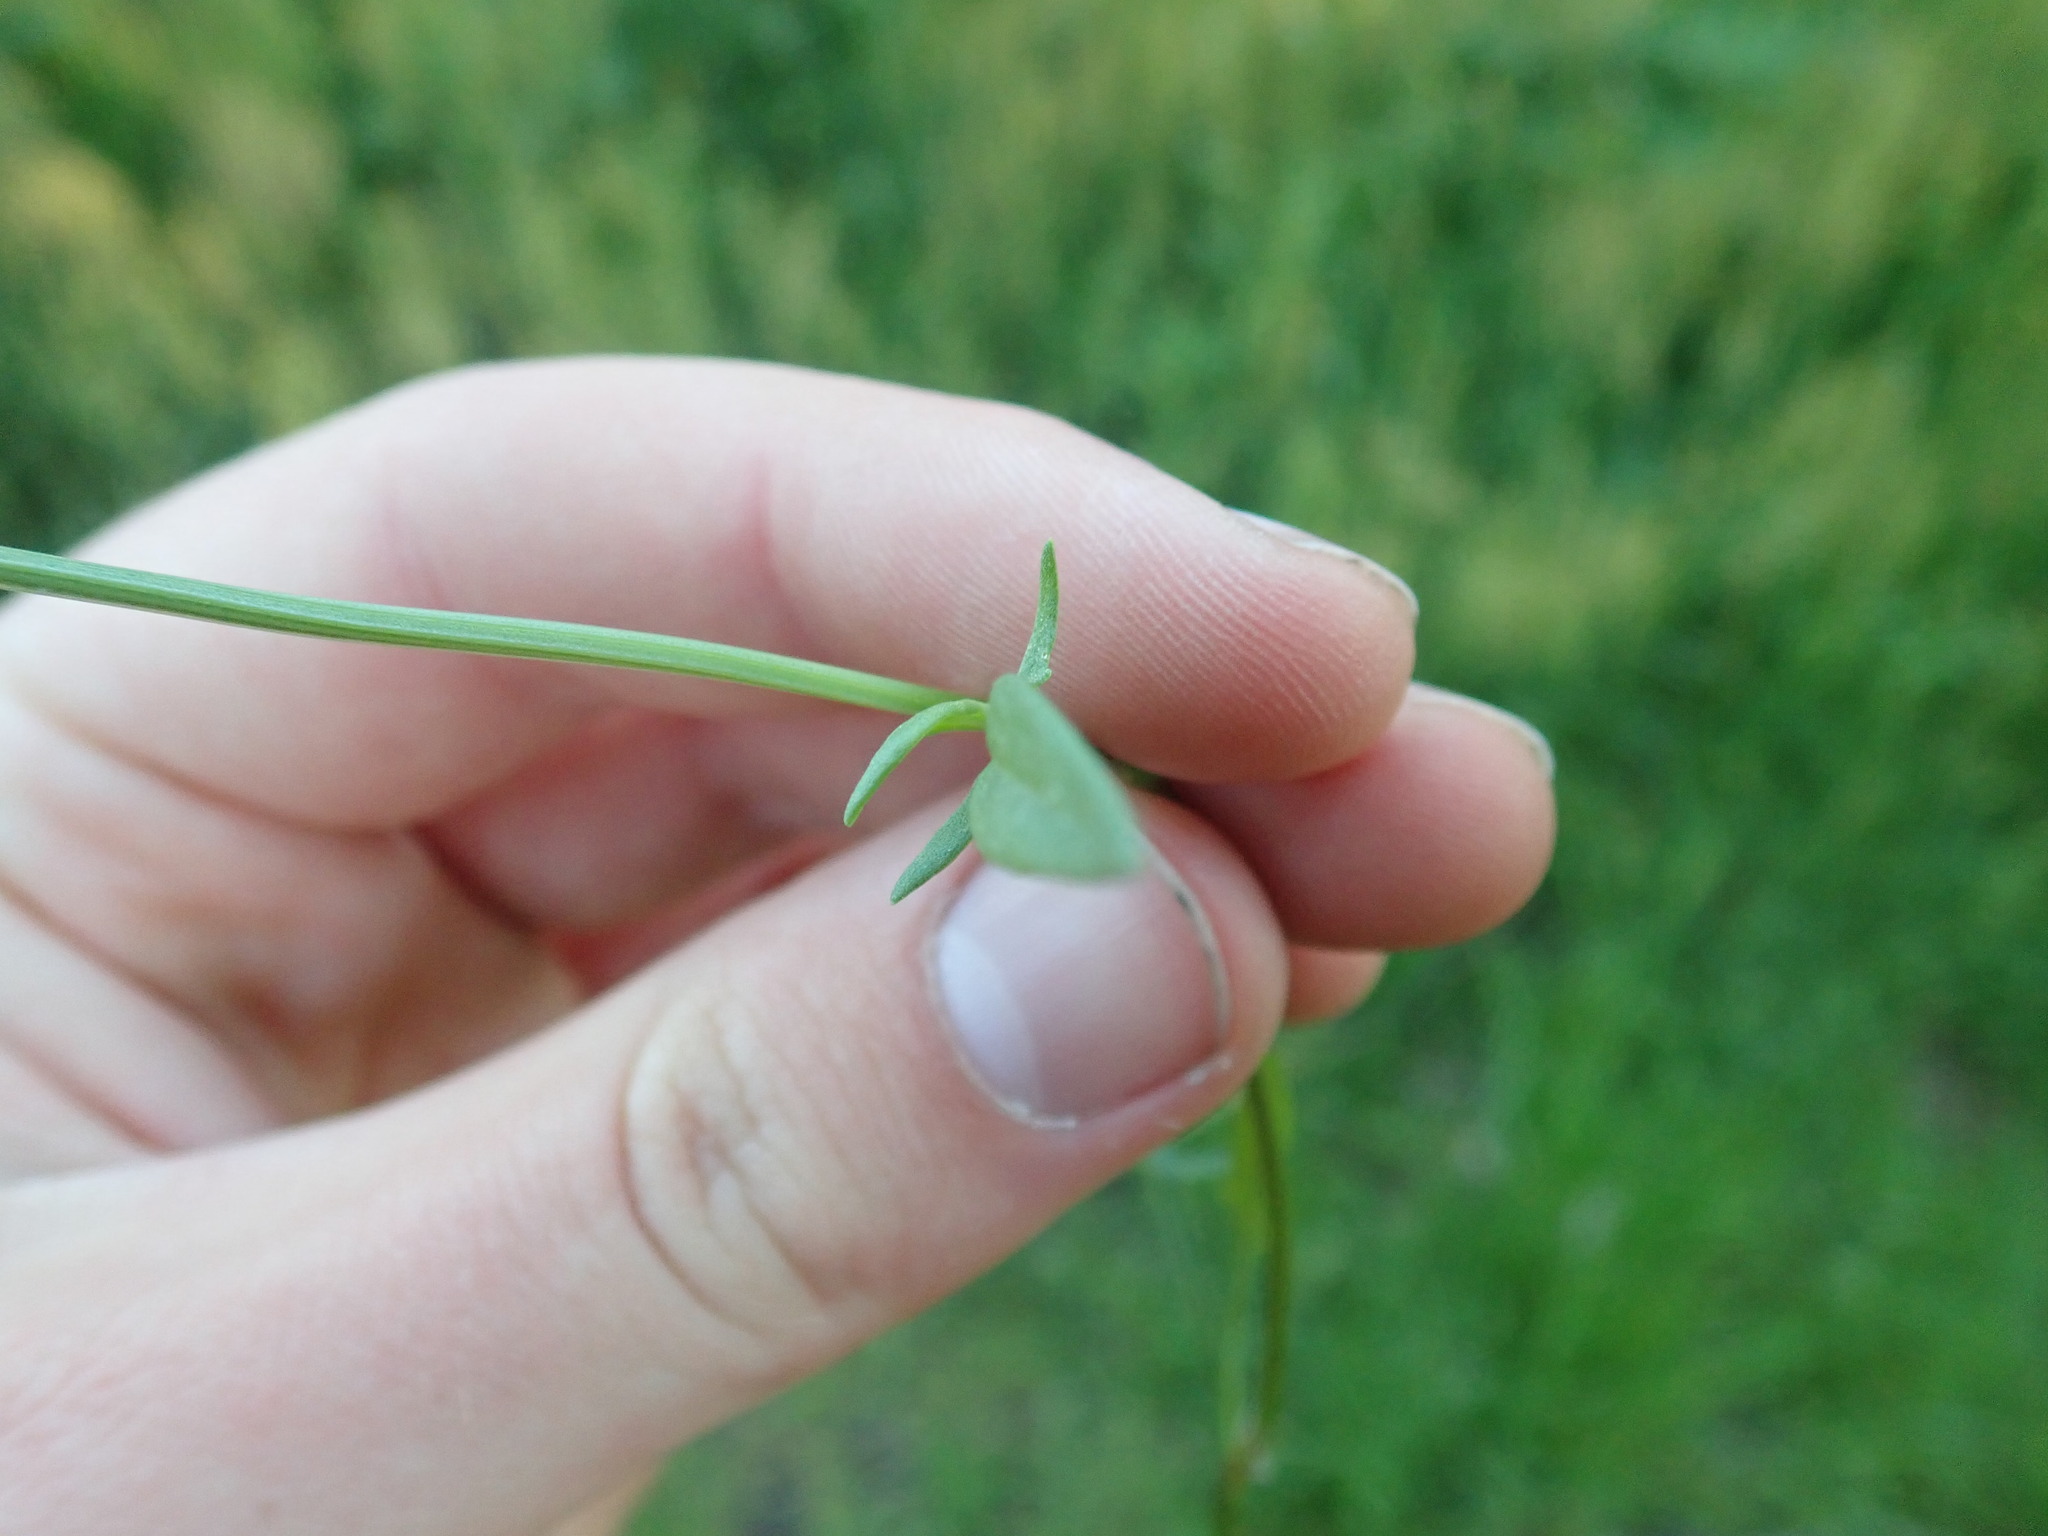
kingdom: Plantae
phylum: Tracheophyta
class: Magnoliopsida
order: Caryophyllales
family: Polygonaceae
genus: Rumex
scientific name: Rumex acetosella
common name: Common sheep sorrel
